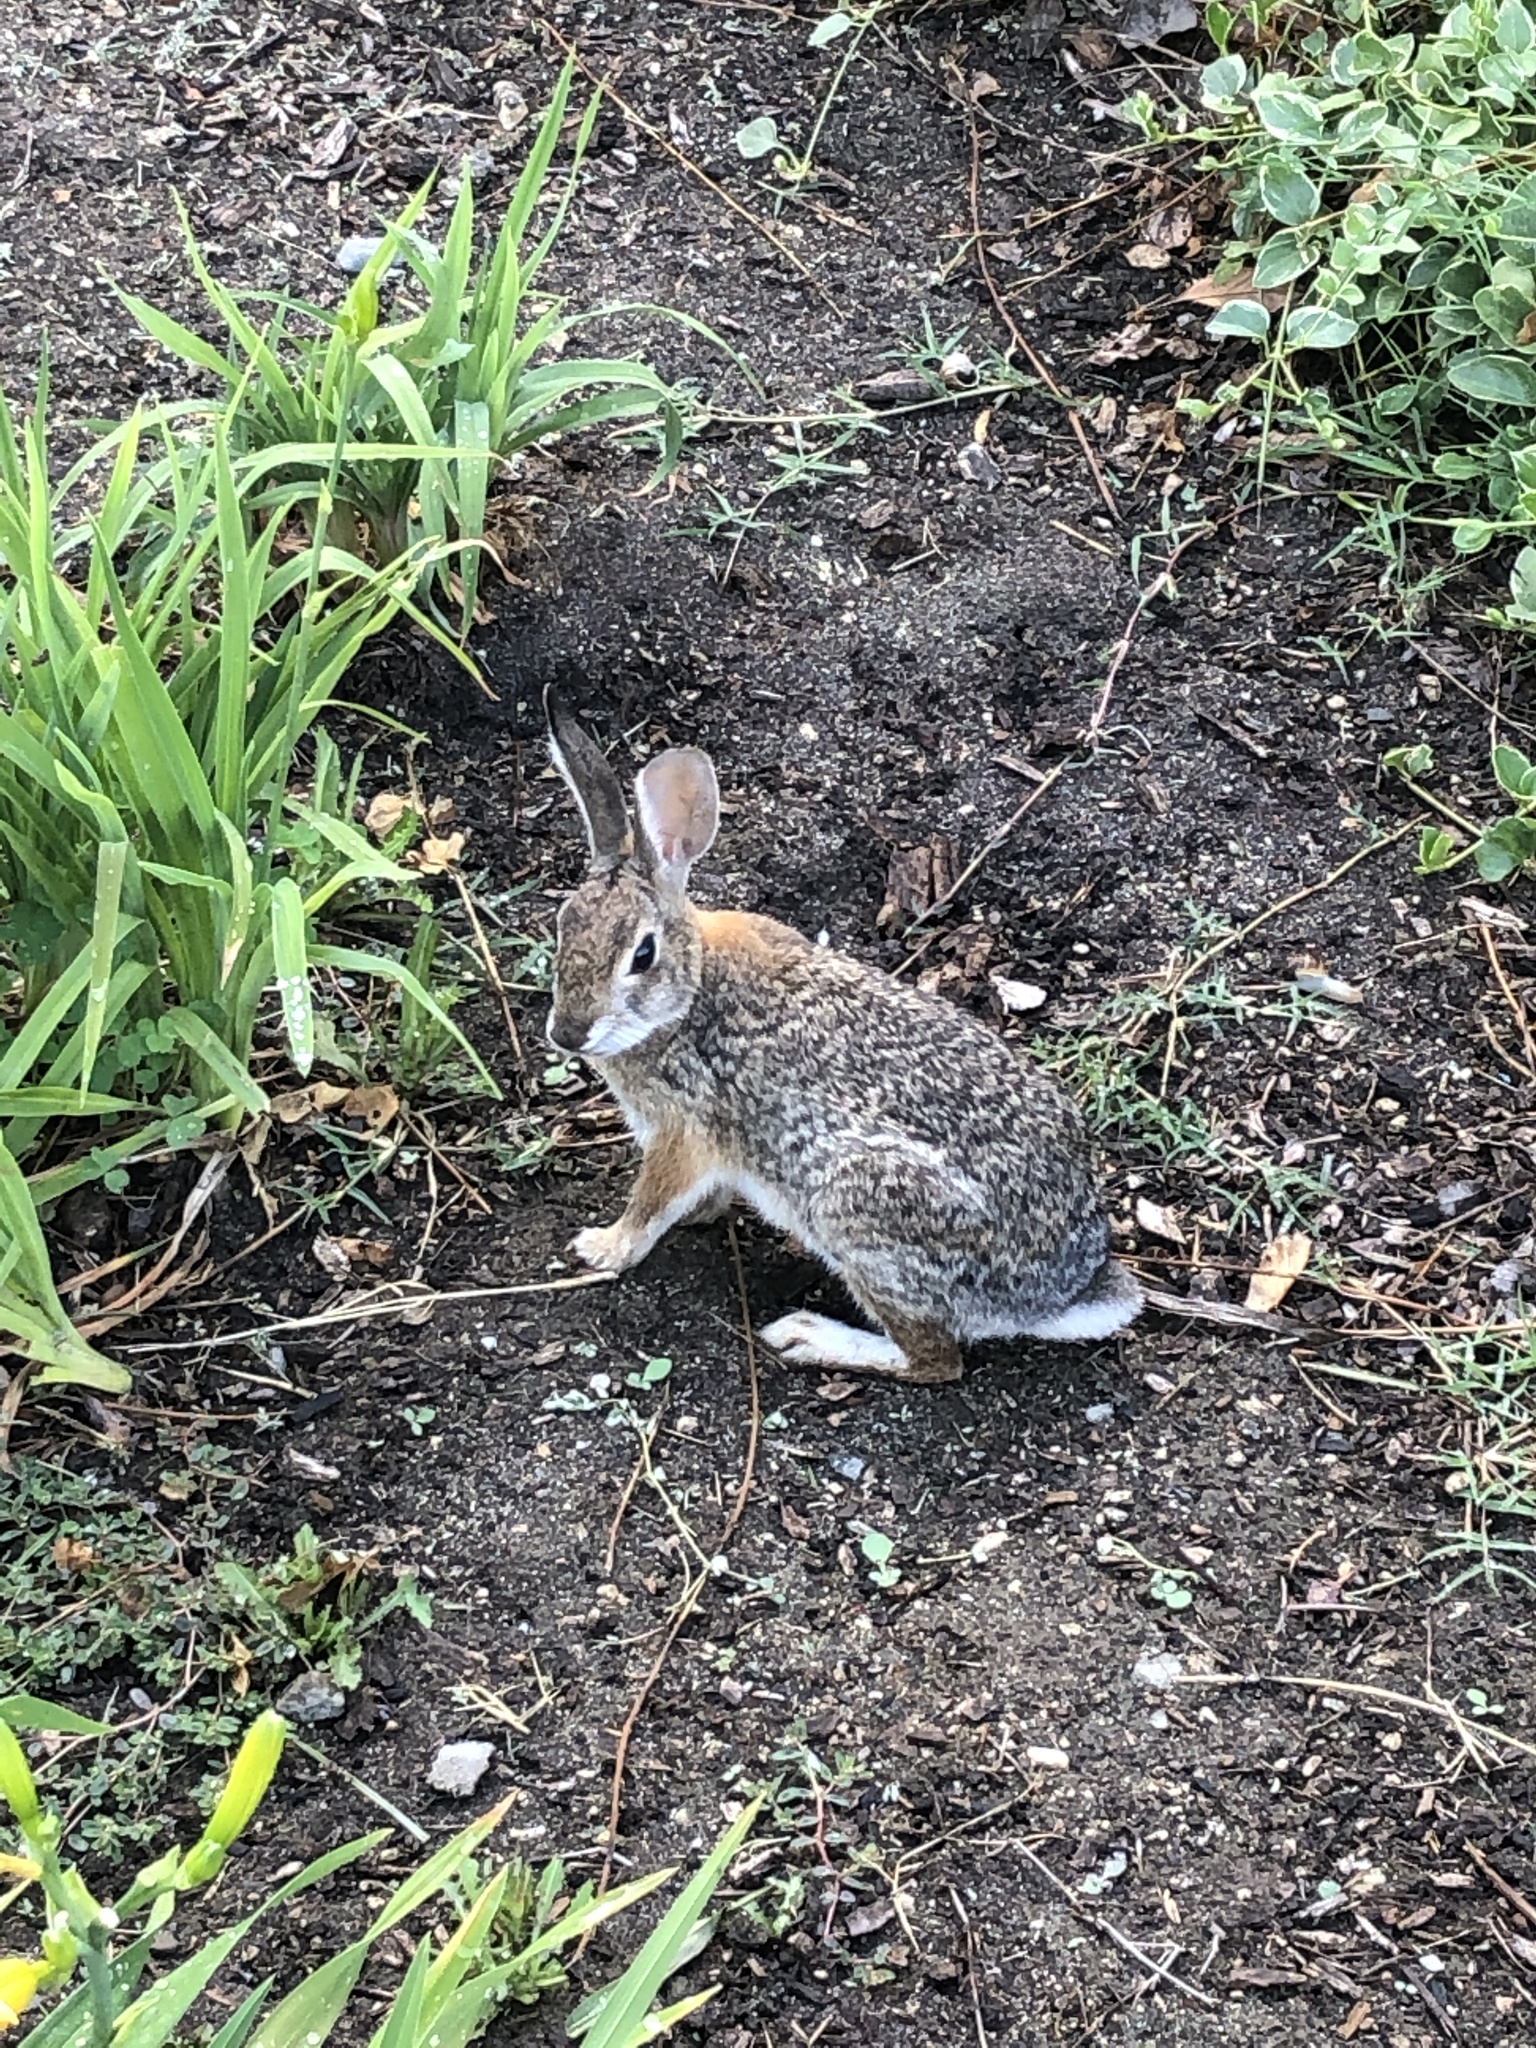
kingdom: Animalia
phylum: Chordata
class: Mammalia
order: Lagomorpha
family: Leporidae
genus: Sylvilagus
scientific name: Sylvilagus audubonii
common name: Desert cottontail
